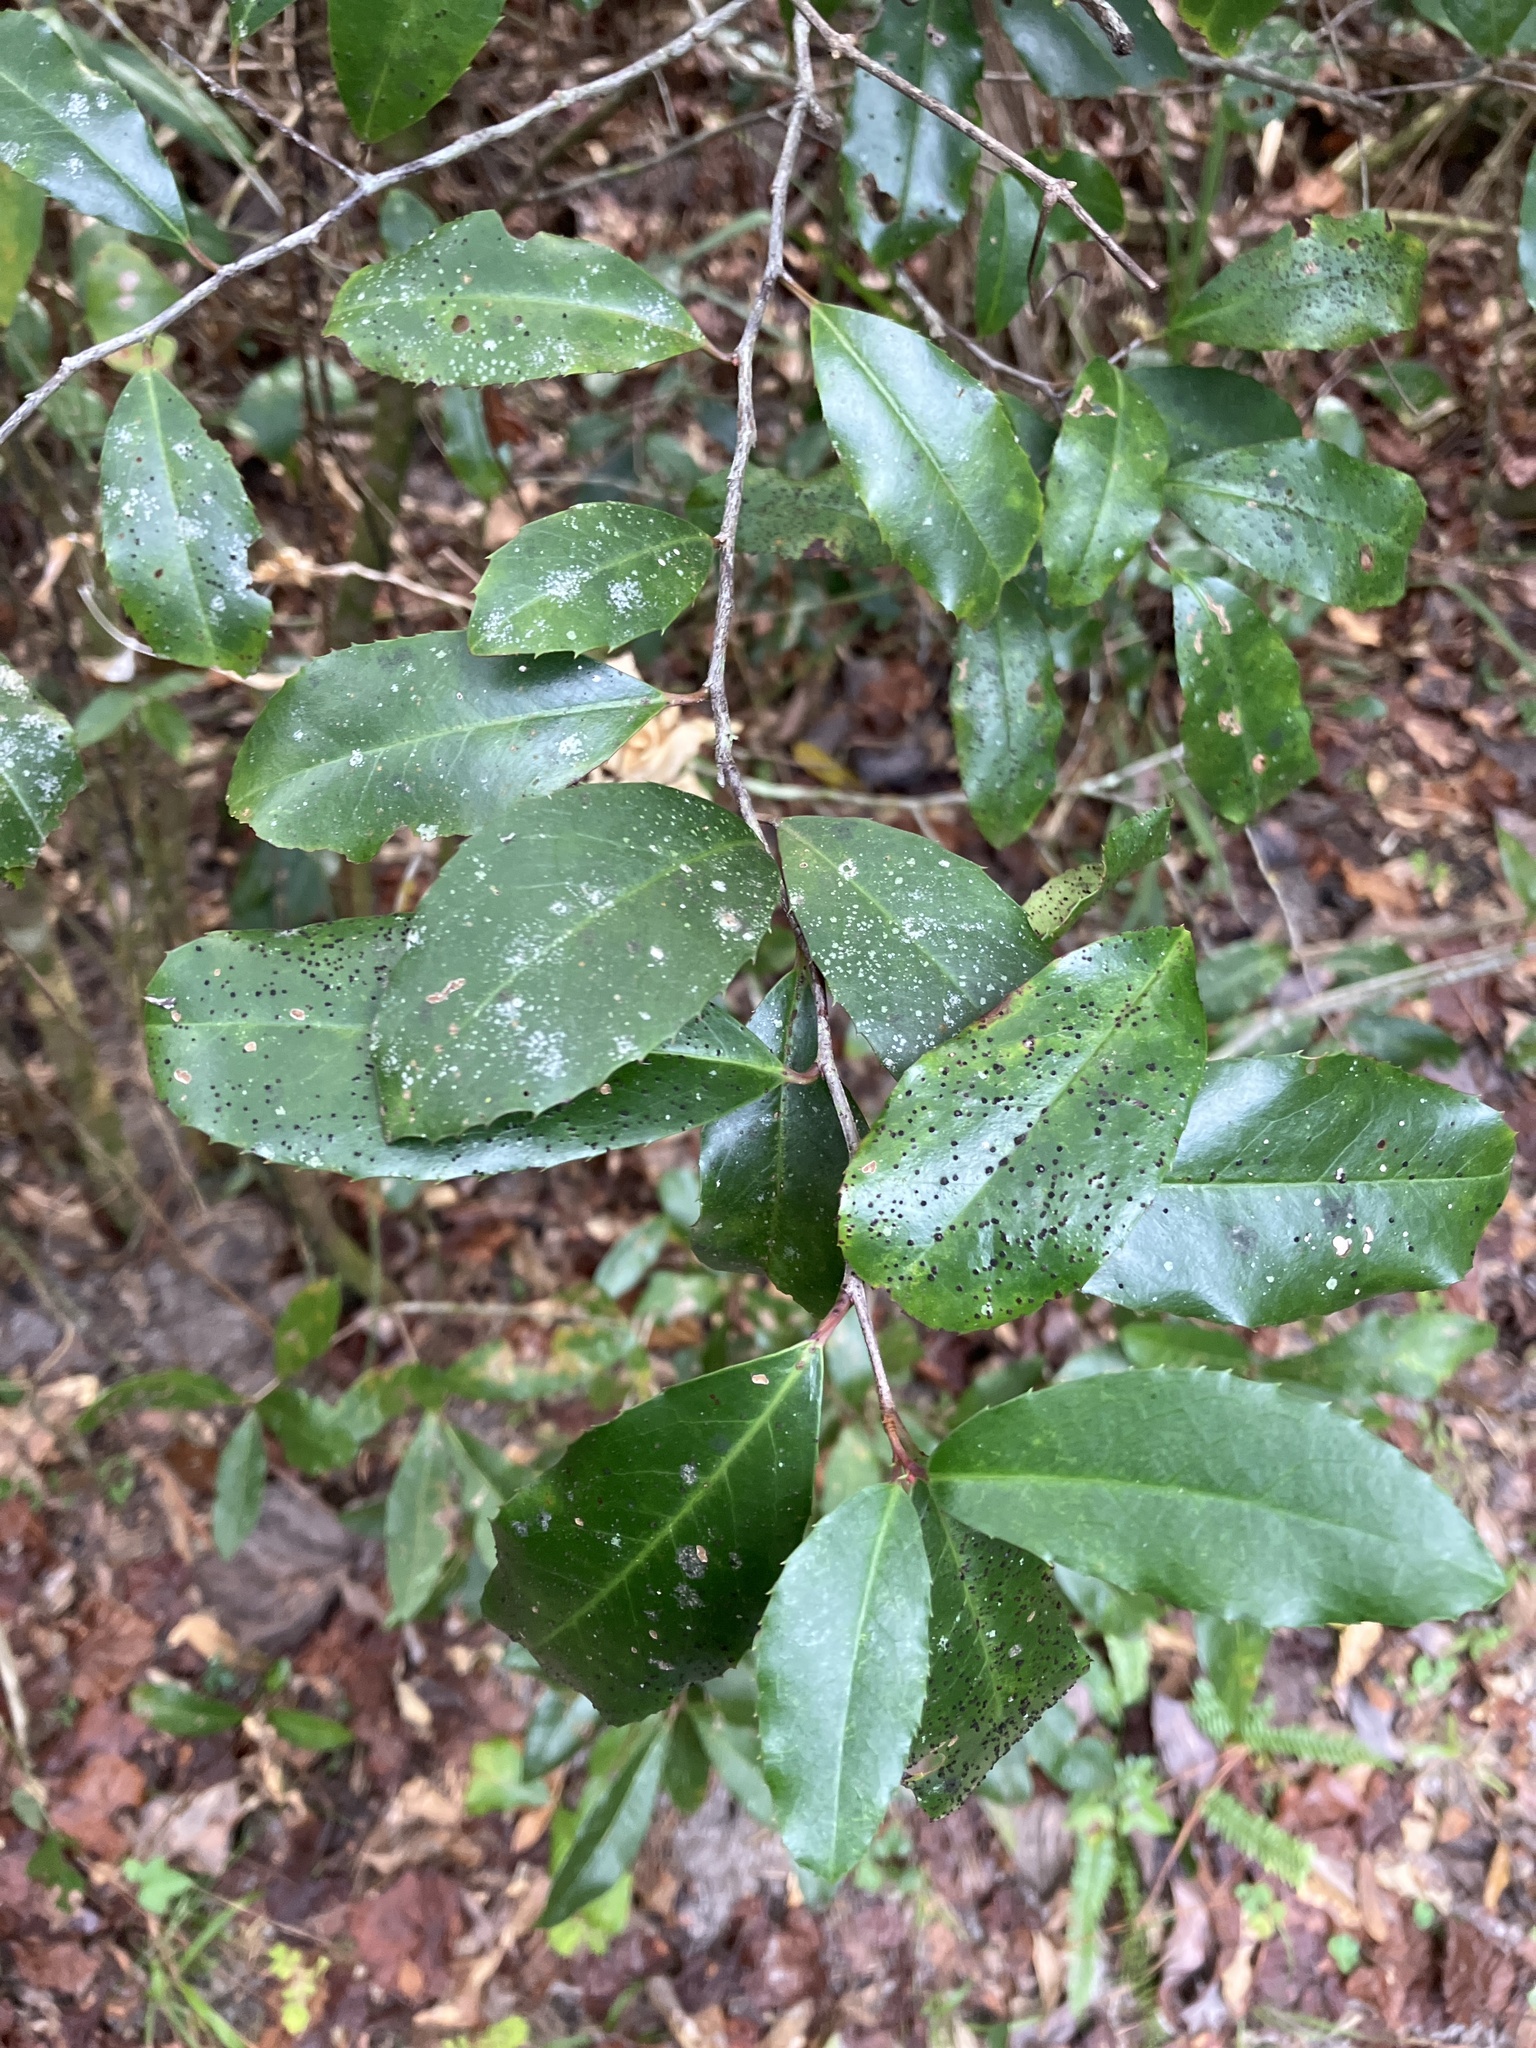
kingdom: Plantae
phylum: Tracheophyta
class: Magnoliopsida
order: Rosales
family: Rosaceae
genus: Prunus
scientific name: Prunus caroliniana
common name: Carolina laurel cherry
